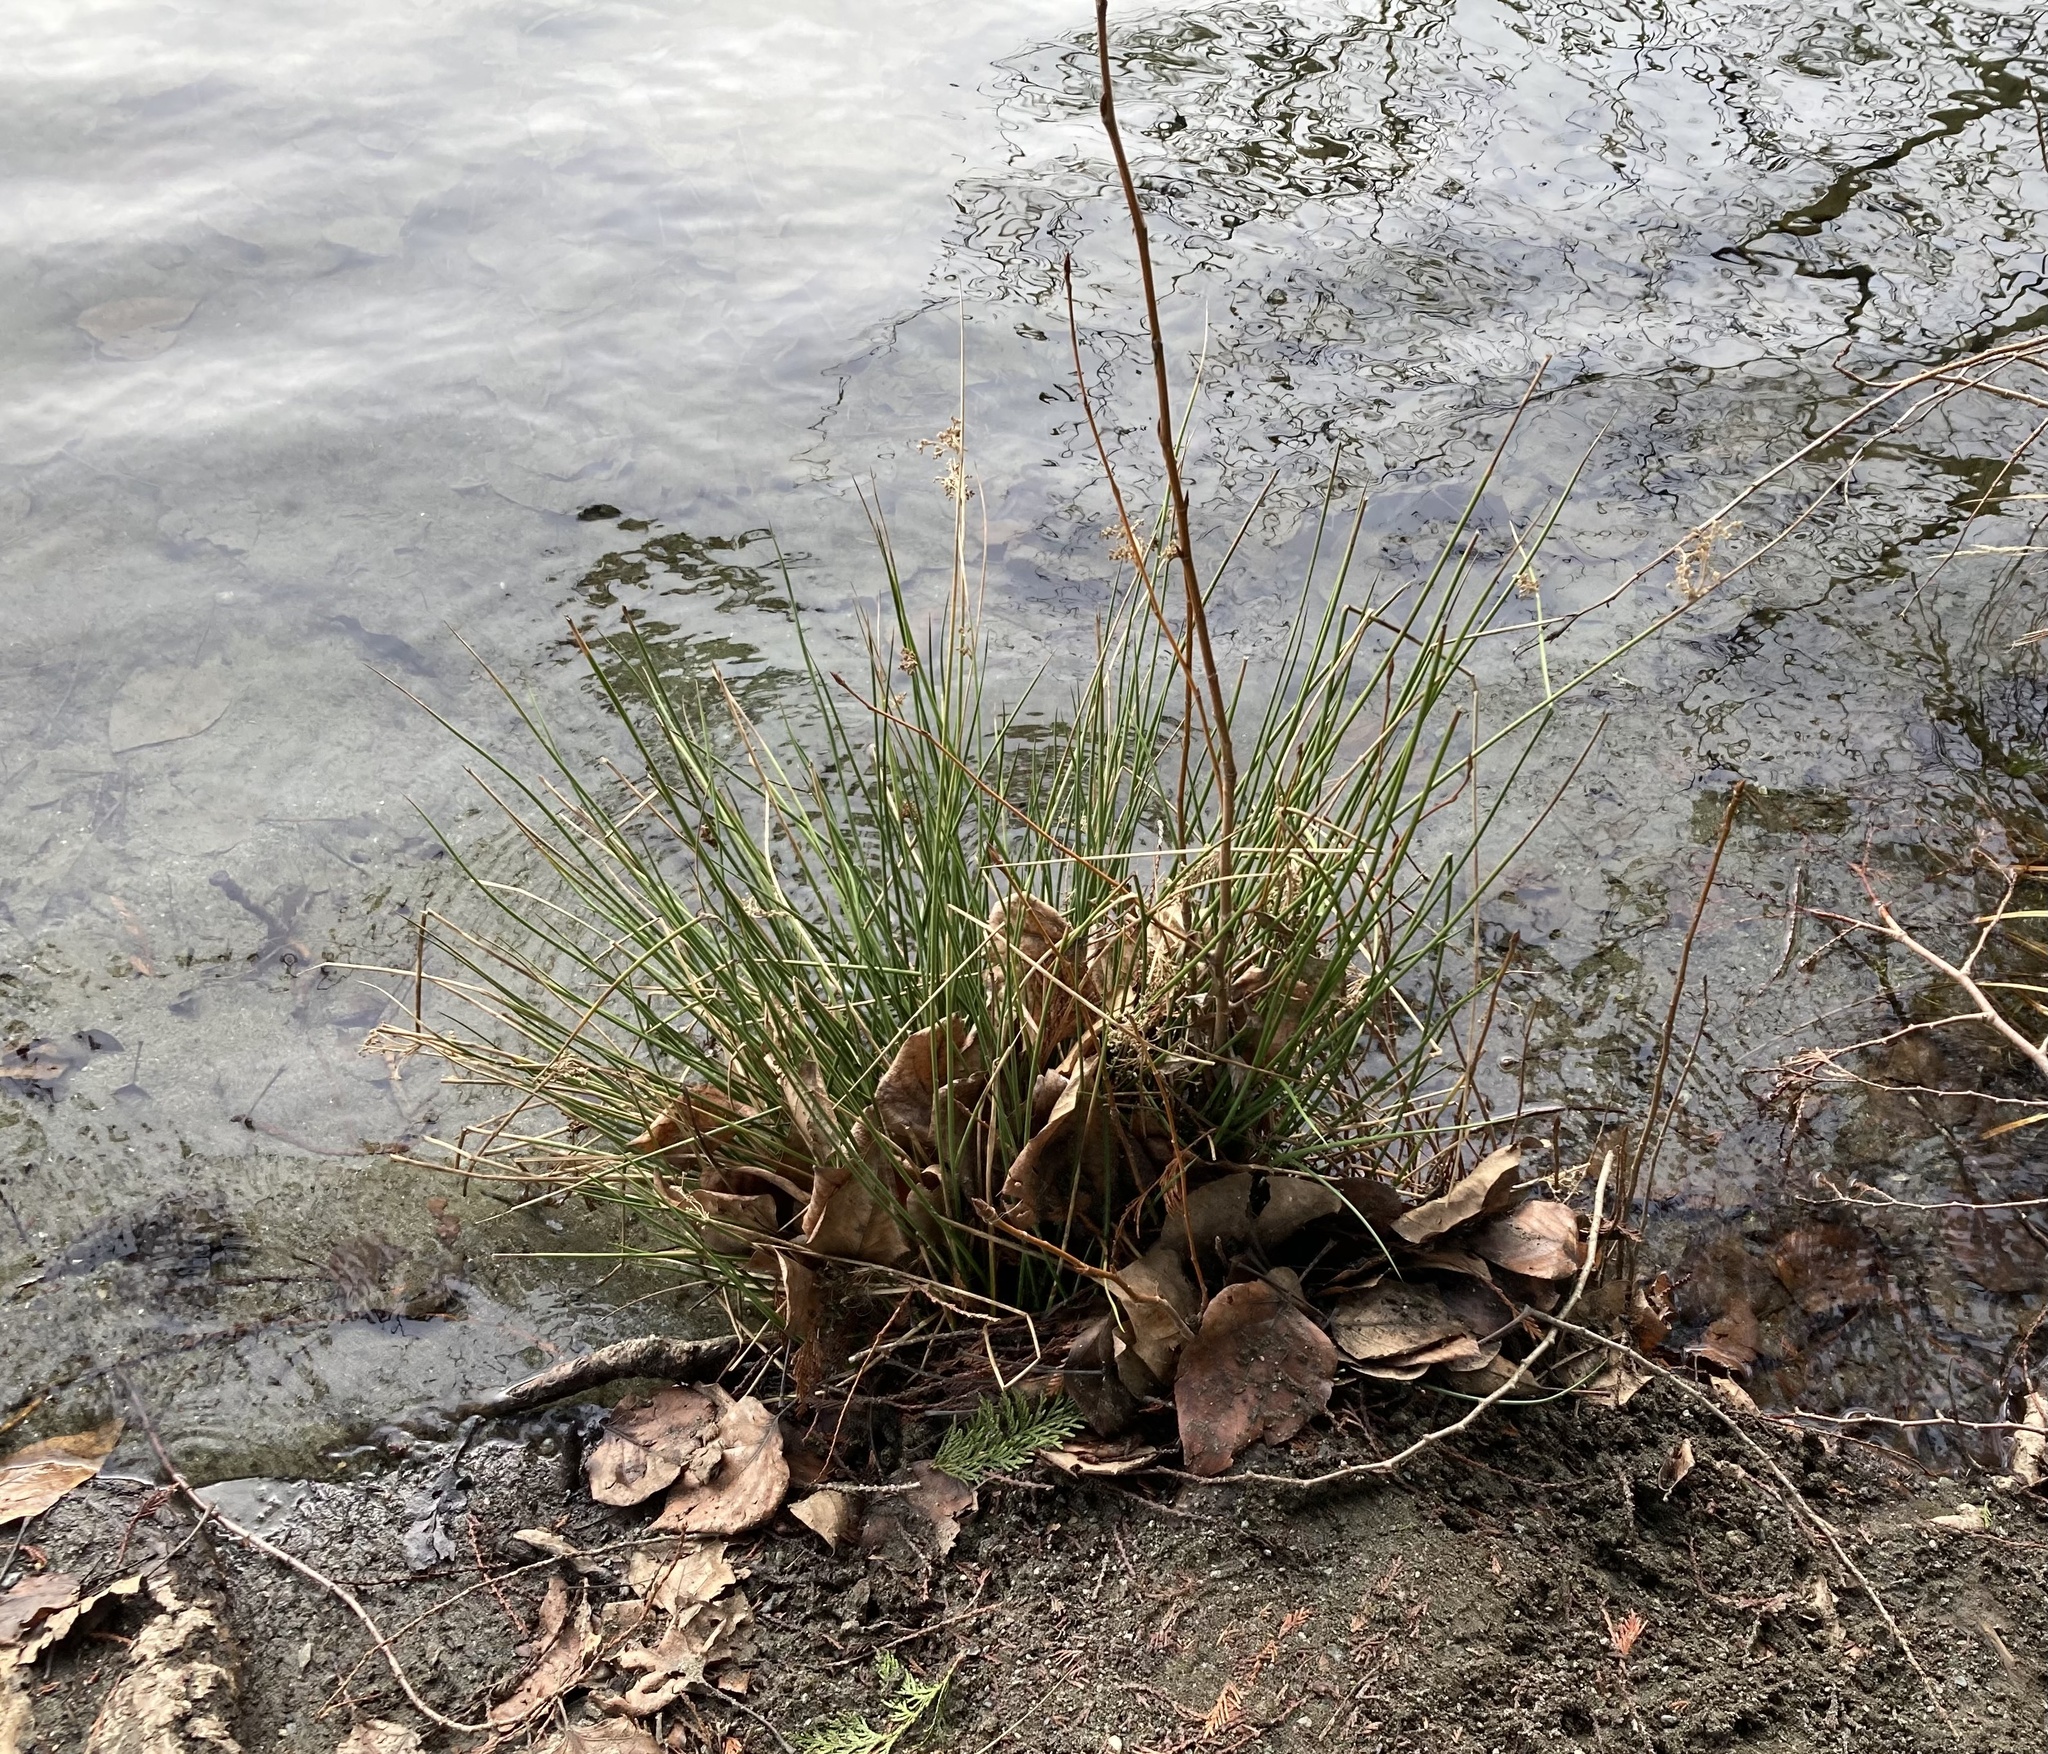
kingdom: Plantae
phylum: Tracheophyta
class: Liliopsida
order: Poales
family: Juncaceae
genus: Juncus
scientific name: Juncus effusus
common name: Soft rush
